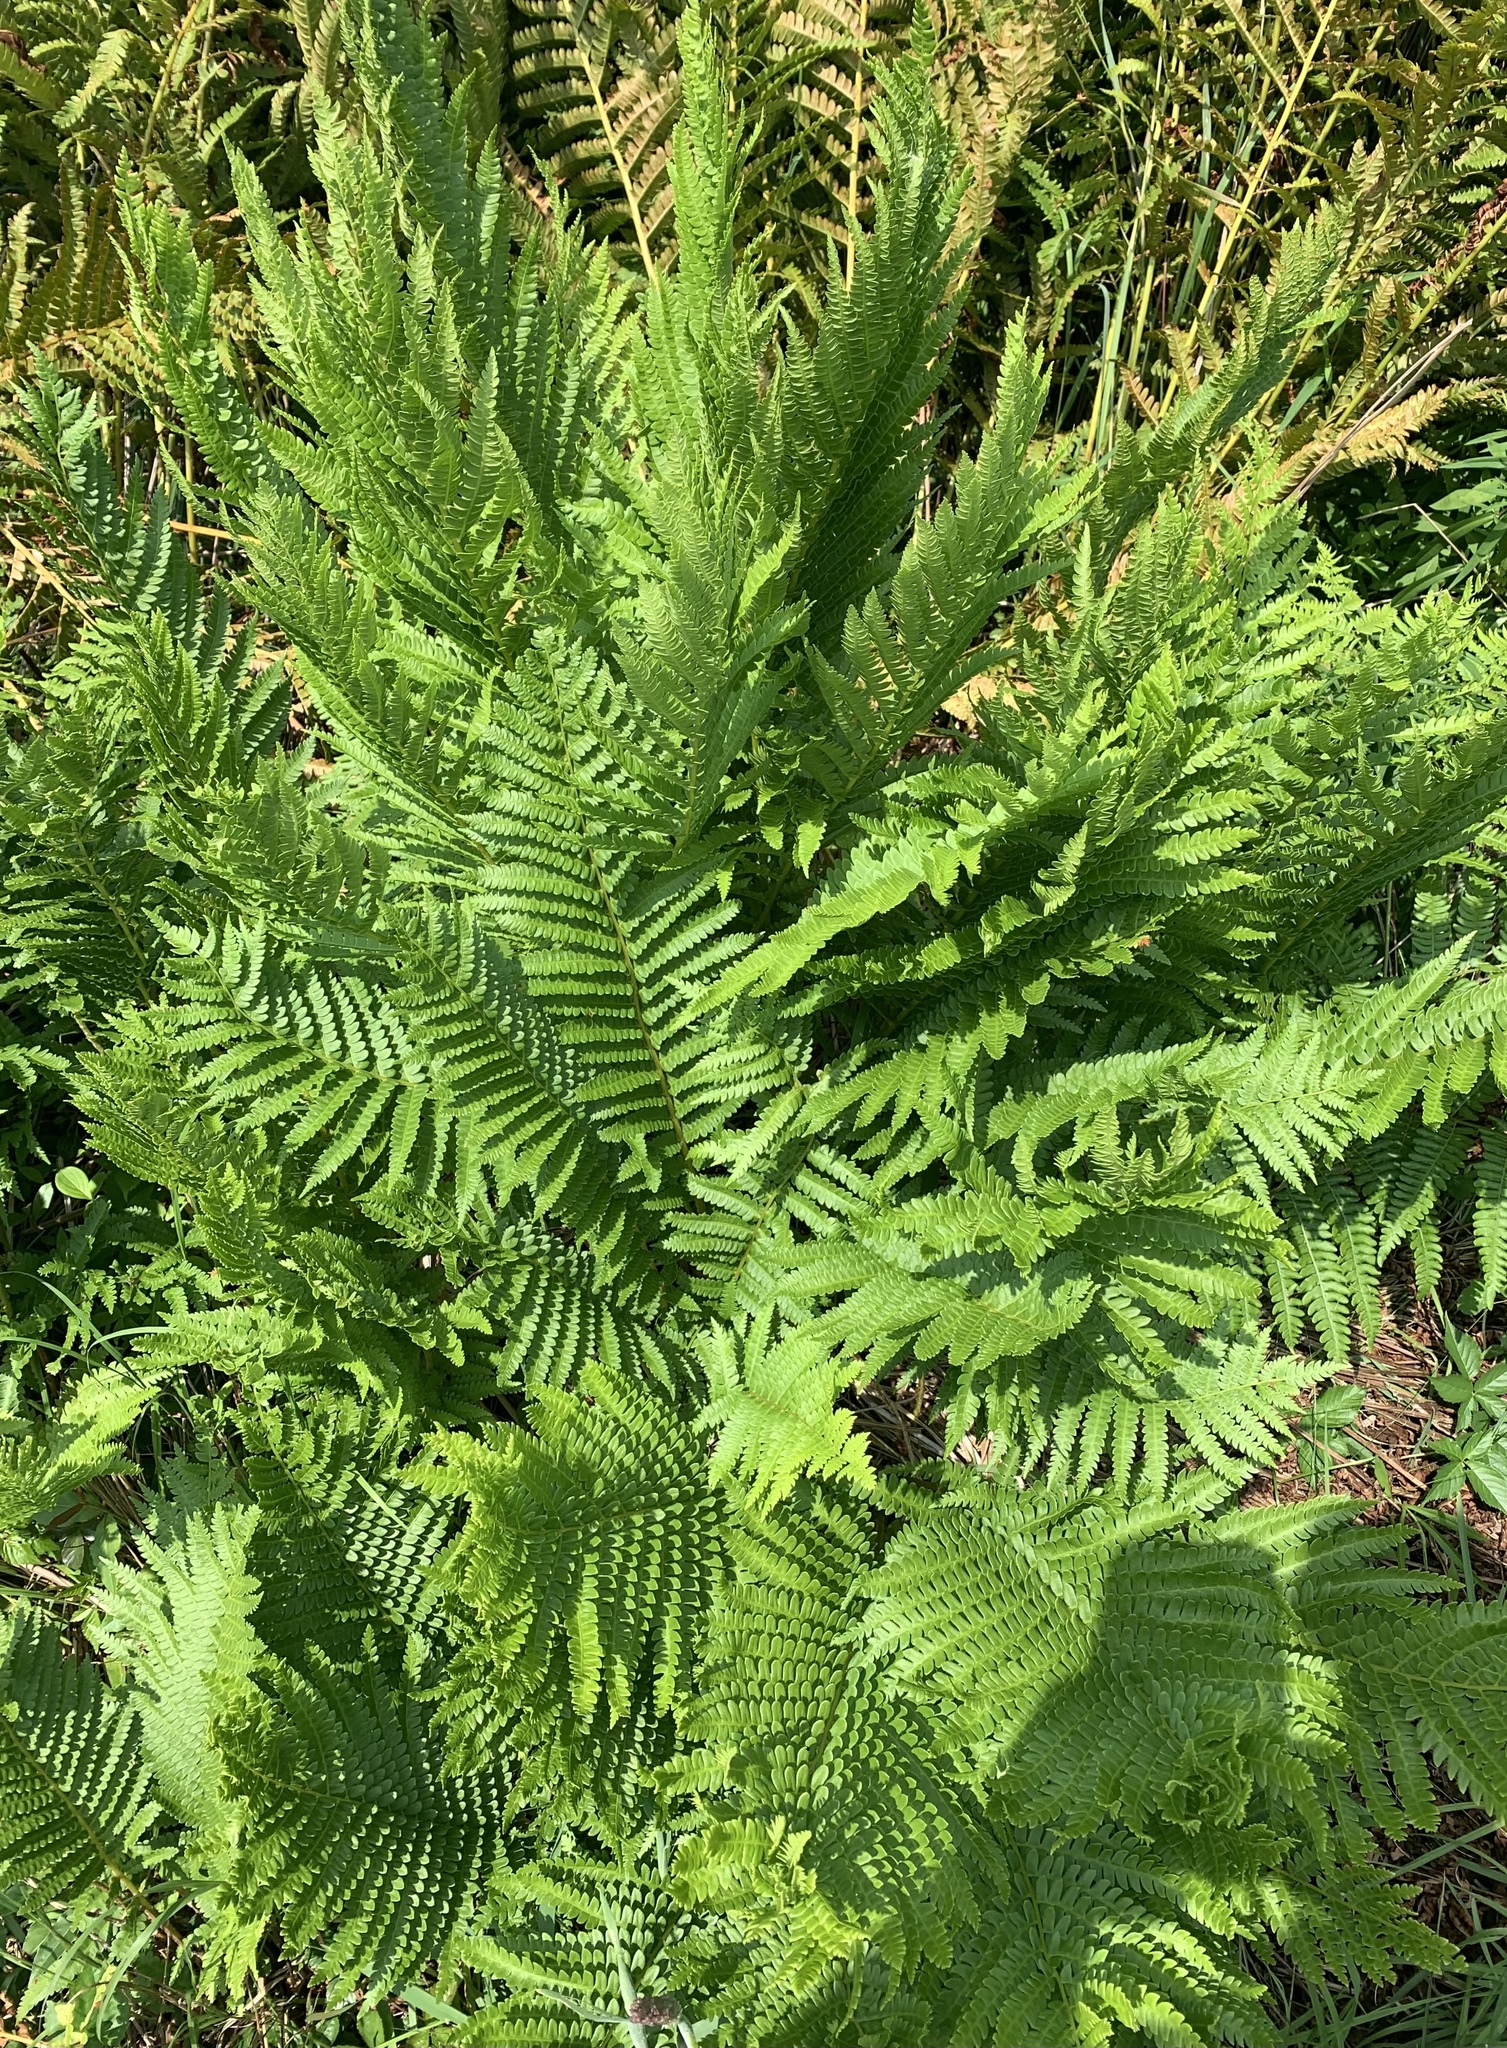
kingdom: Plantae
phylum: Tracheophyta
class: Polypodiopsida
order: Osmundales
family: Osmundaceae
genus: Osmundastrum
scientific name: Osmundastrum cinnamomeum
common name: Cinnamon fern
